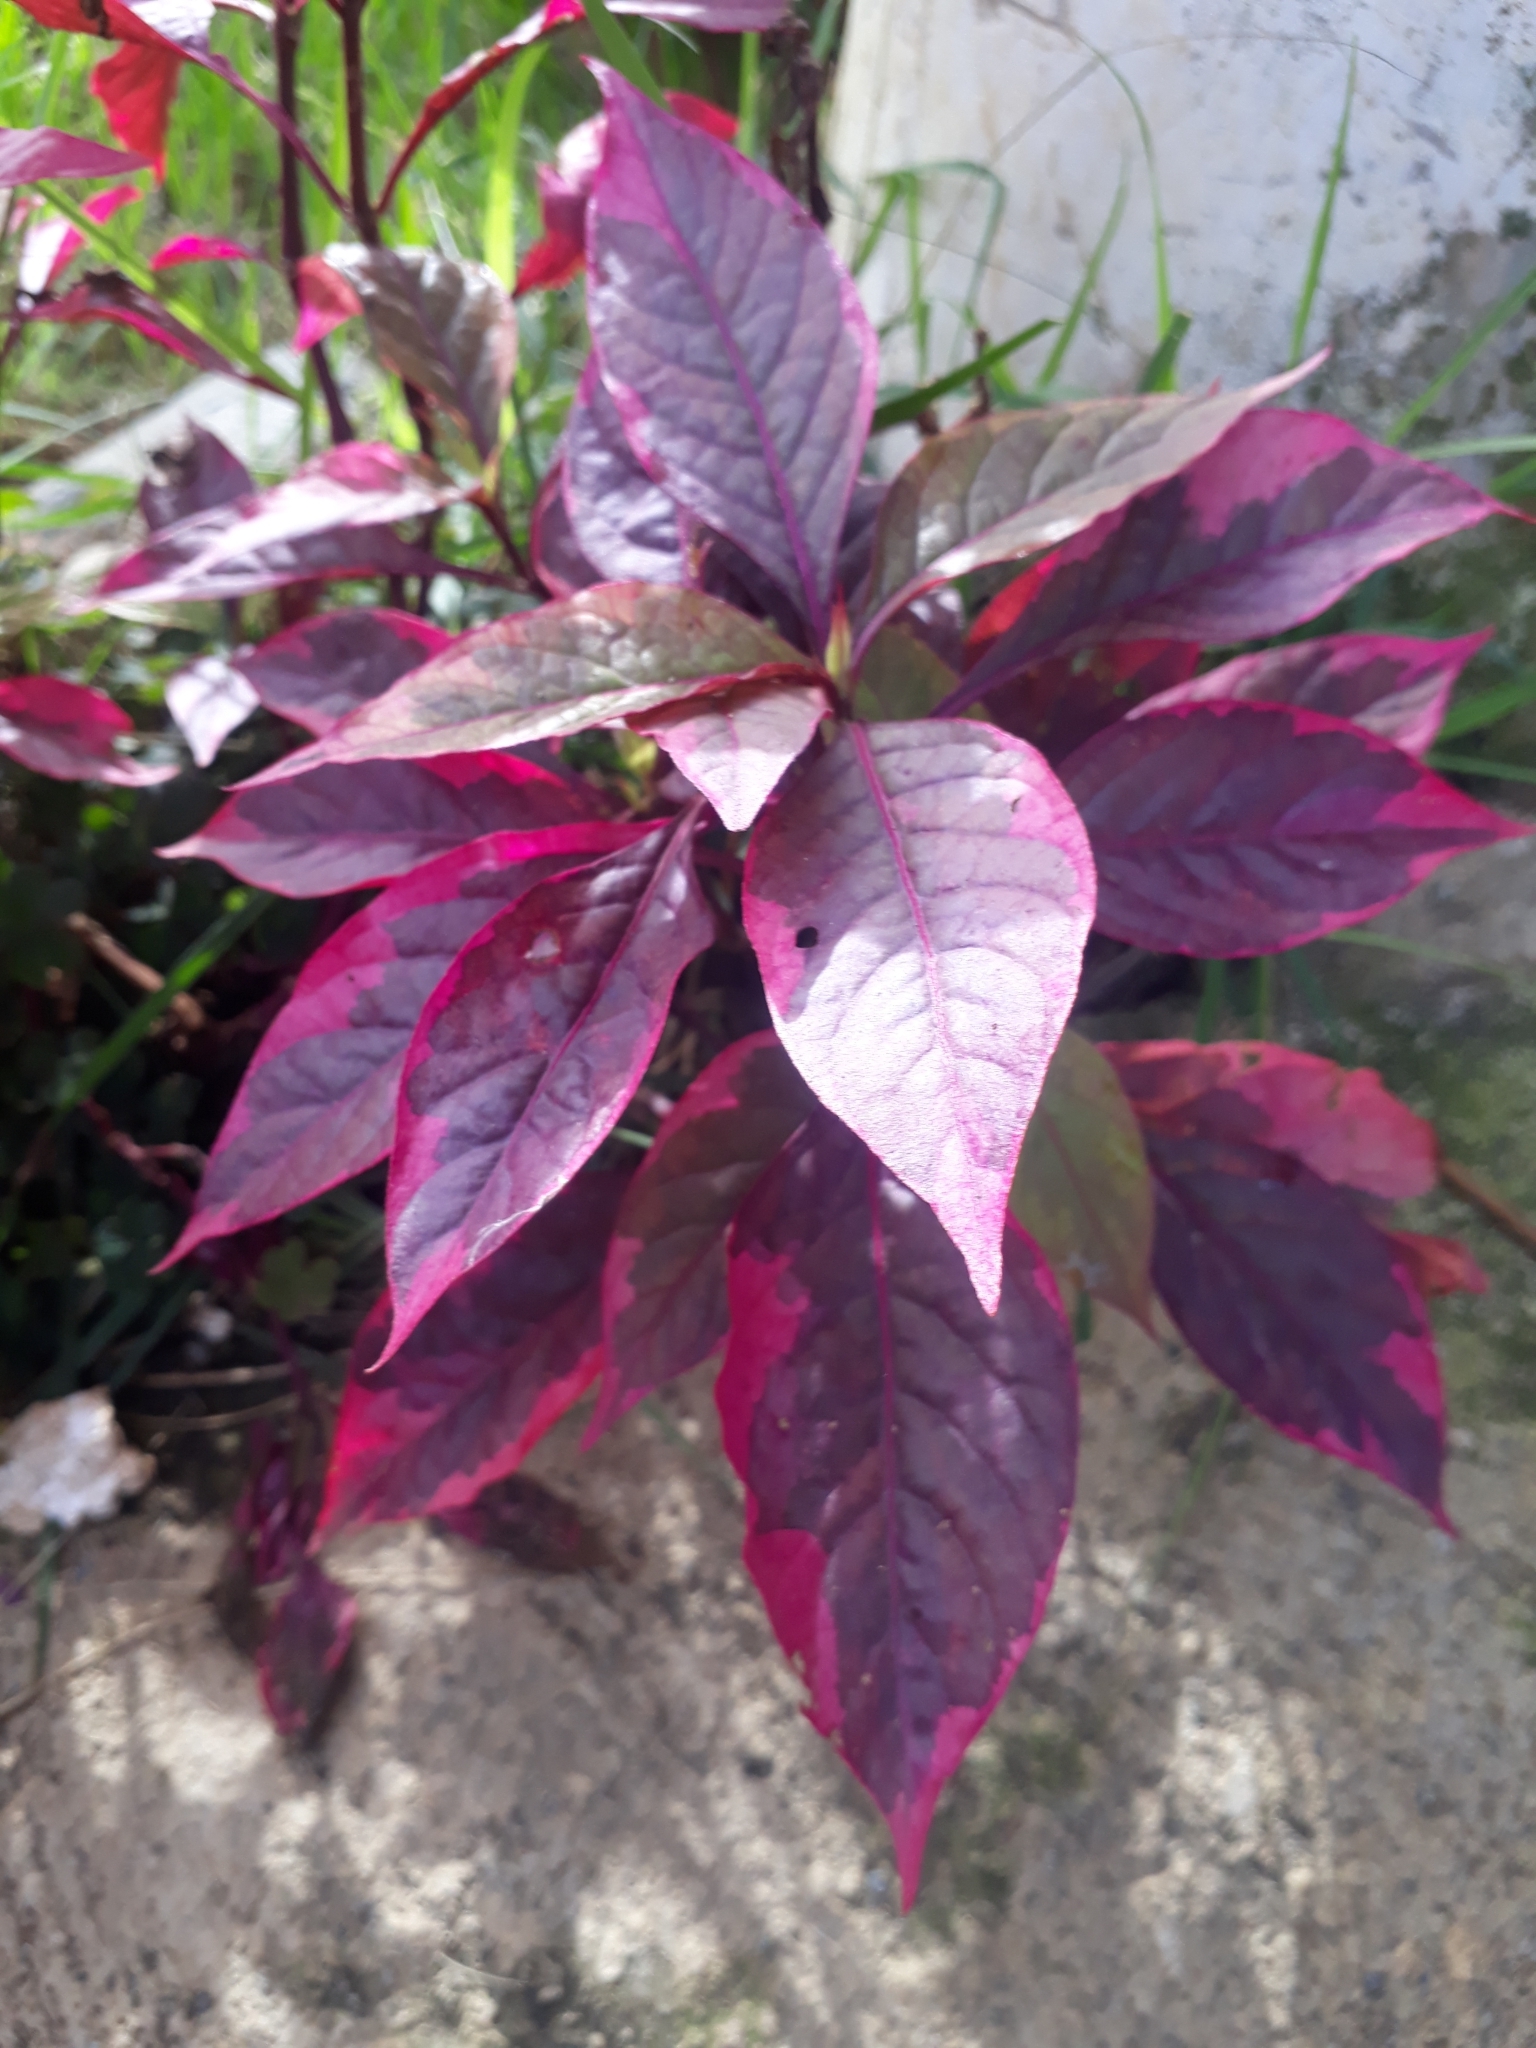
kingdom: Plantae
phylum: Tracheophyta
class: Magnoliopsida
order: Caryophyllales
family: Amaranthaceae
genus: Alternanthera
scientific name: Alternanthera brasiliana
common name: Brazilian joyweed
